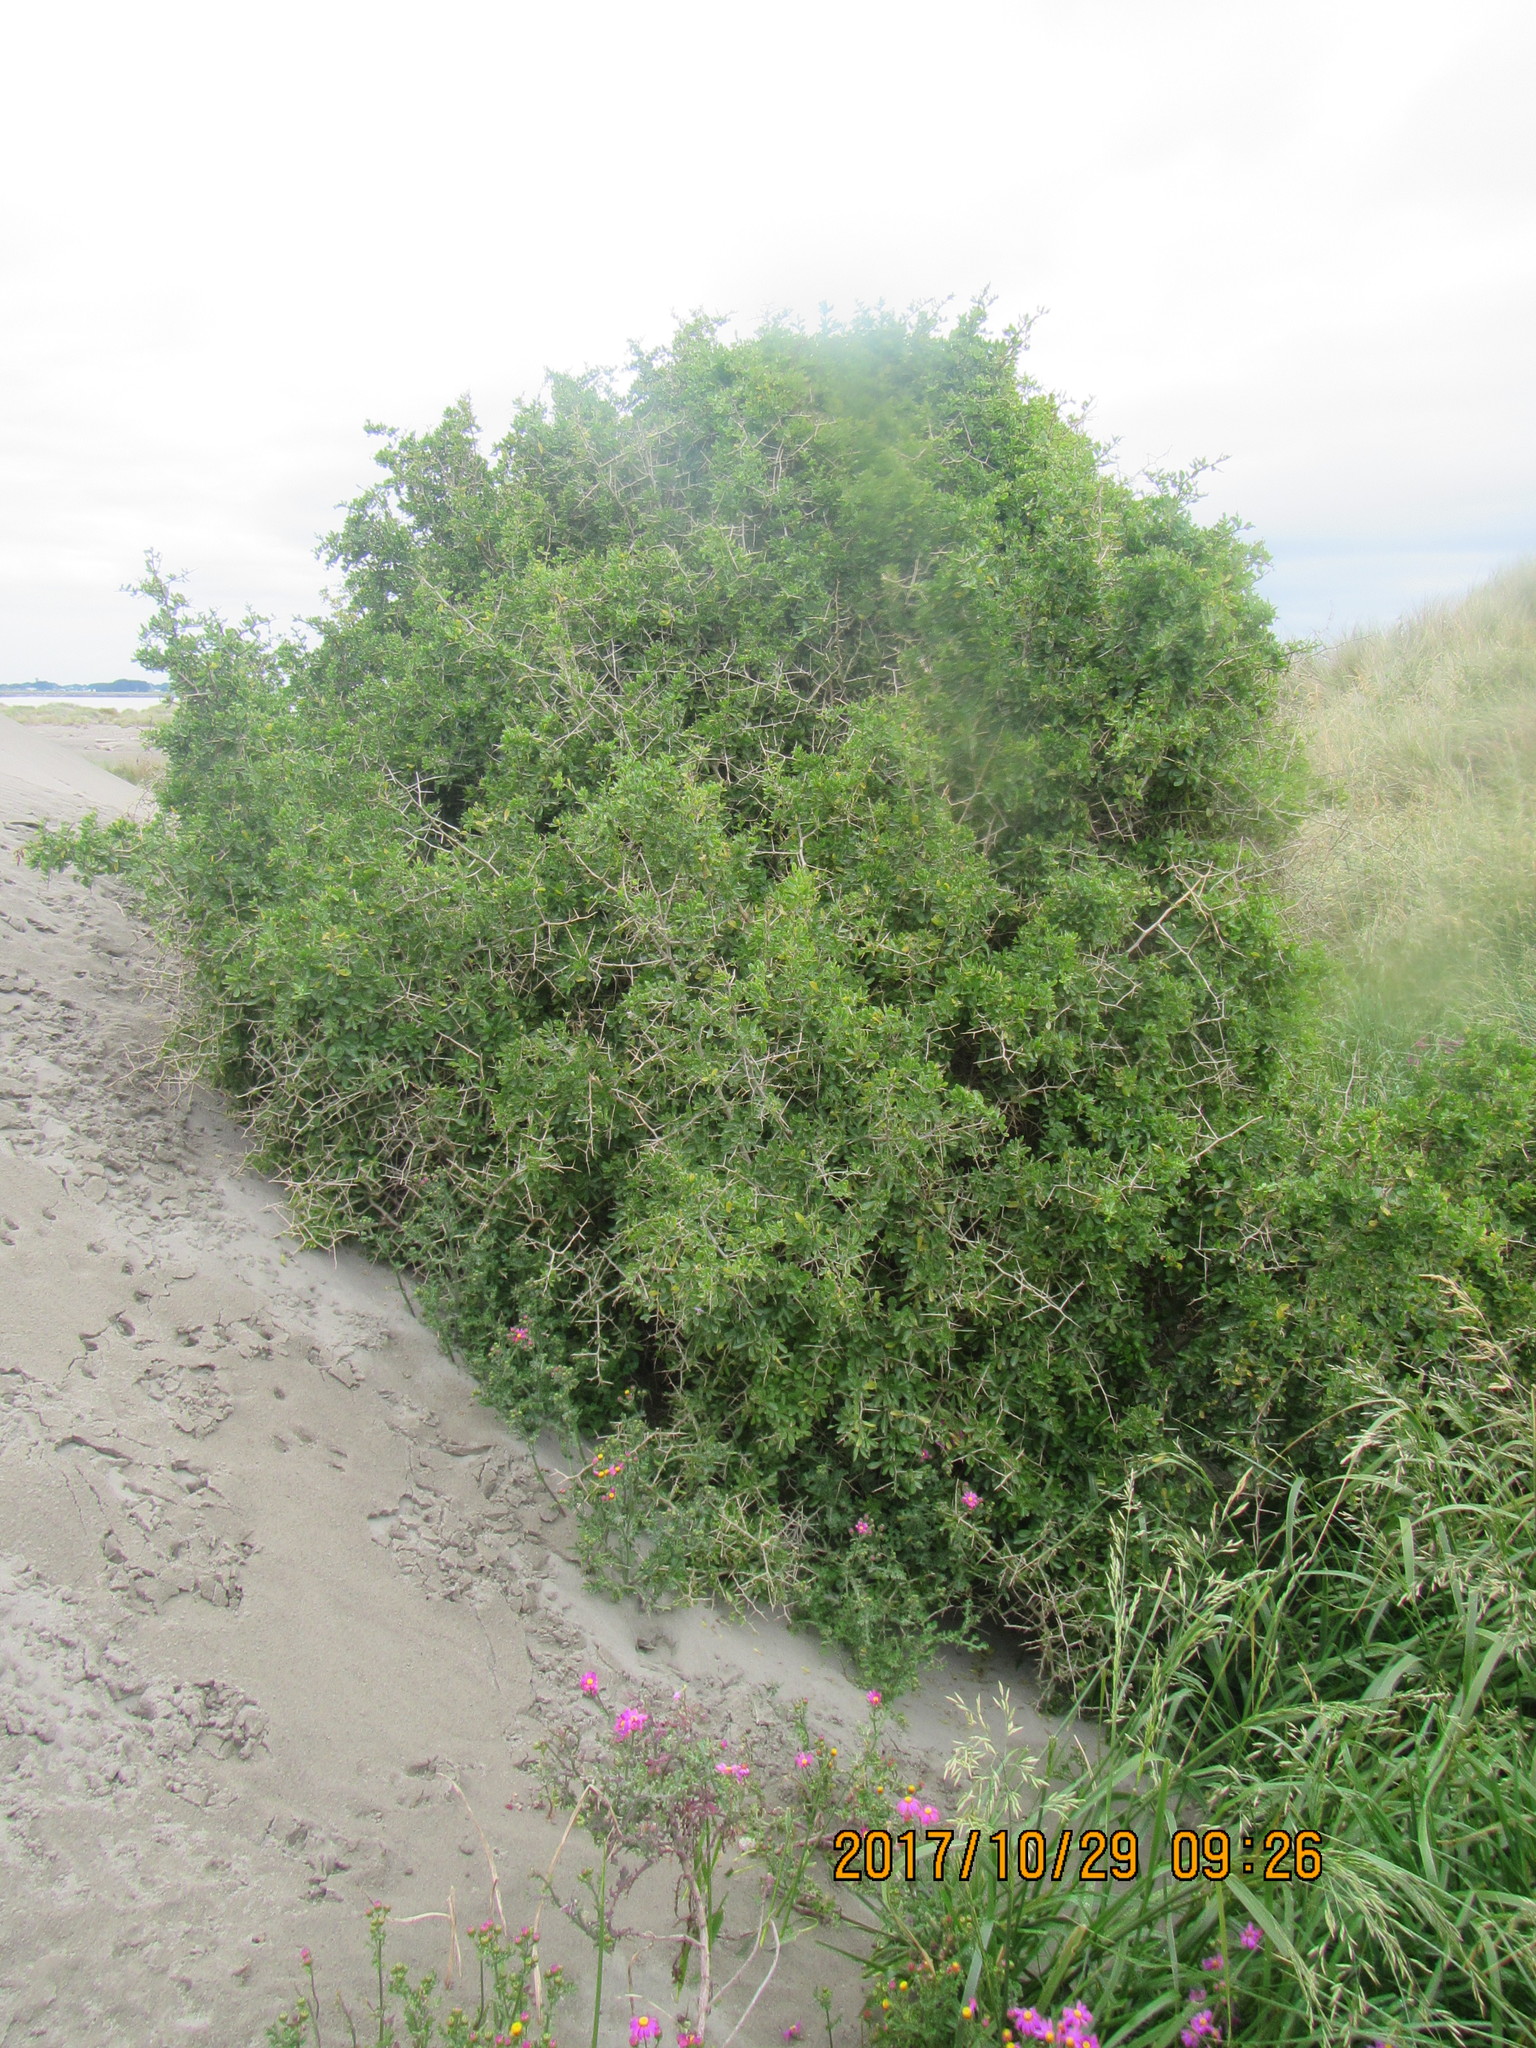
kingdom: Plantae
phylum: Tracheophyta
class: Magnoliopsida
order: Solanales
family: Solanaceae
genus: Lycium
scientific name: Lycium ferocissimum
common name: African boxthorn
